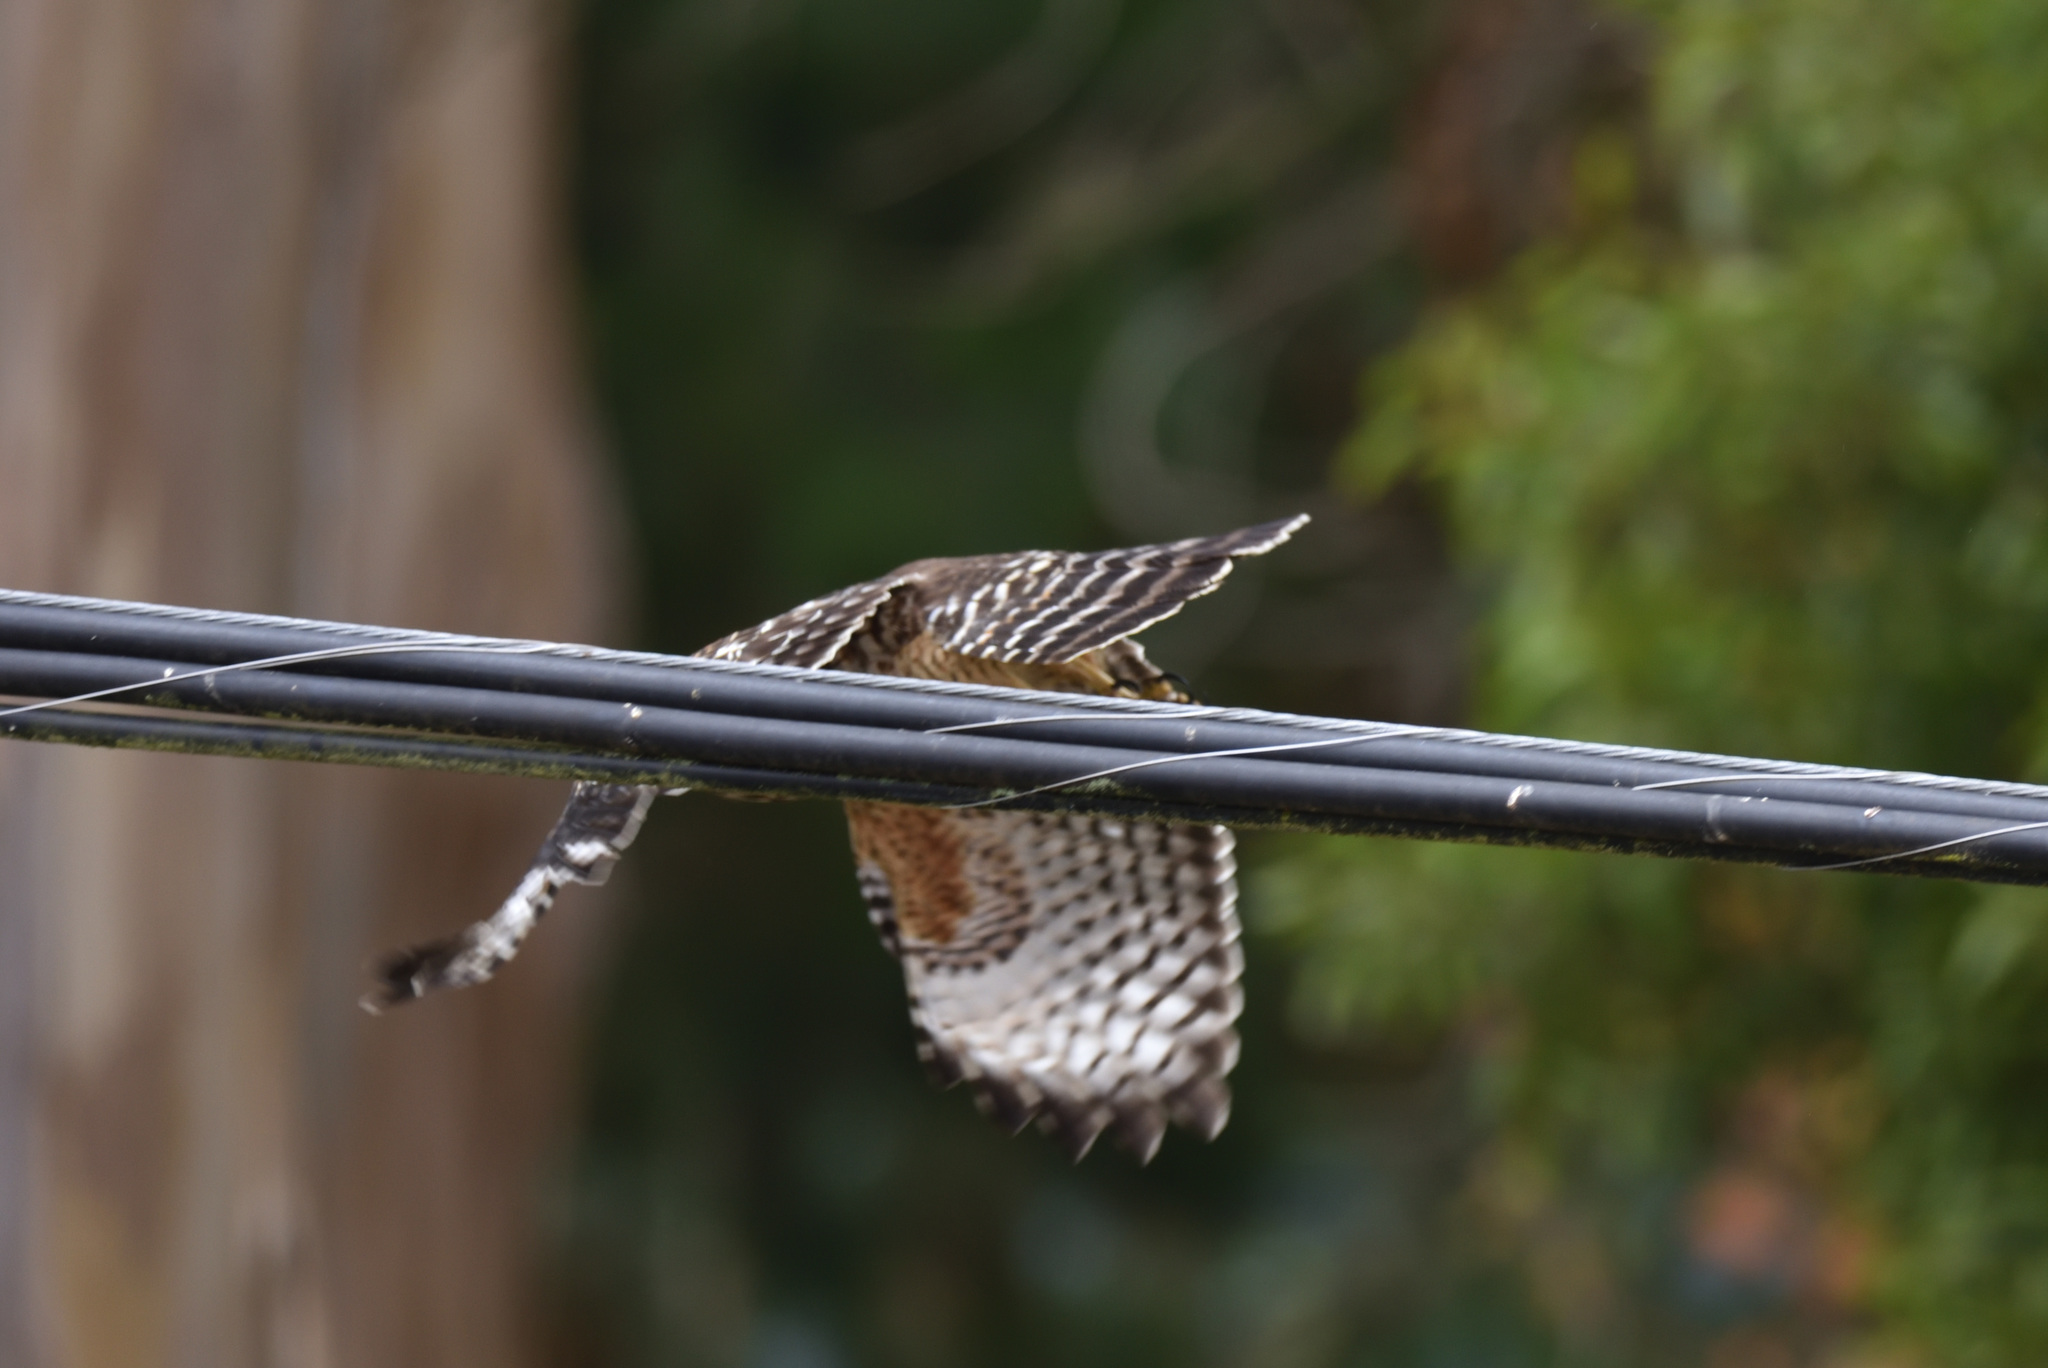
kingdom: Animalia
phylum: Chordata
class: Aves
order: Accipitriformes
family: Accipitridae
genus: Buteo
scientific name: Buteo lineatus
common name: Red-shouldered hawk
